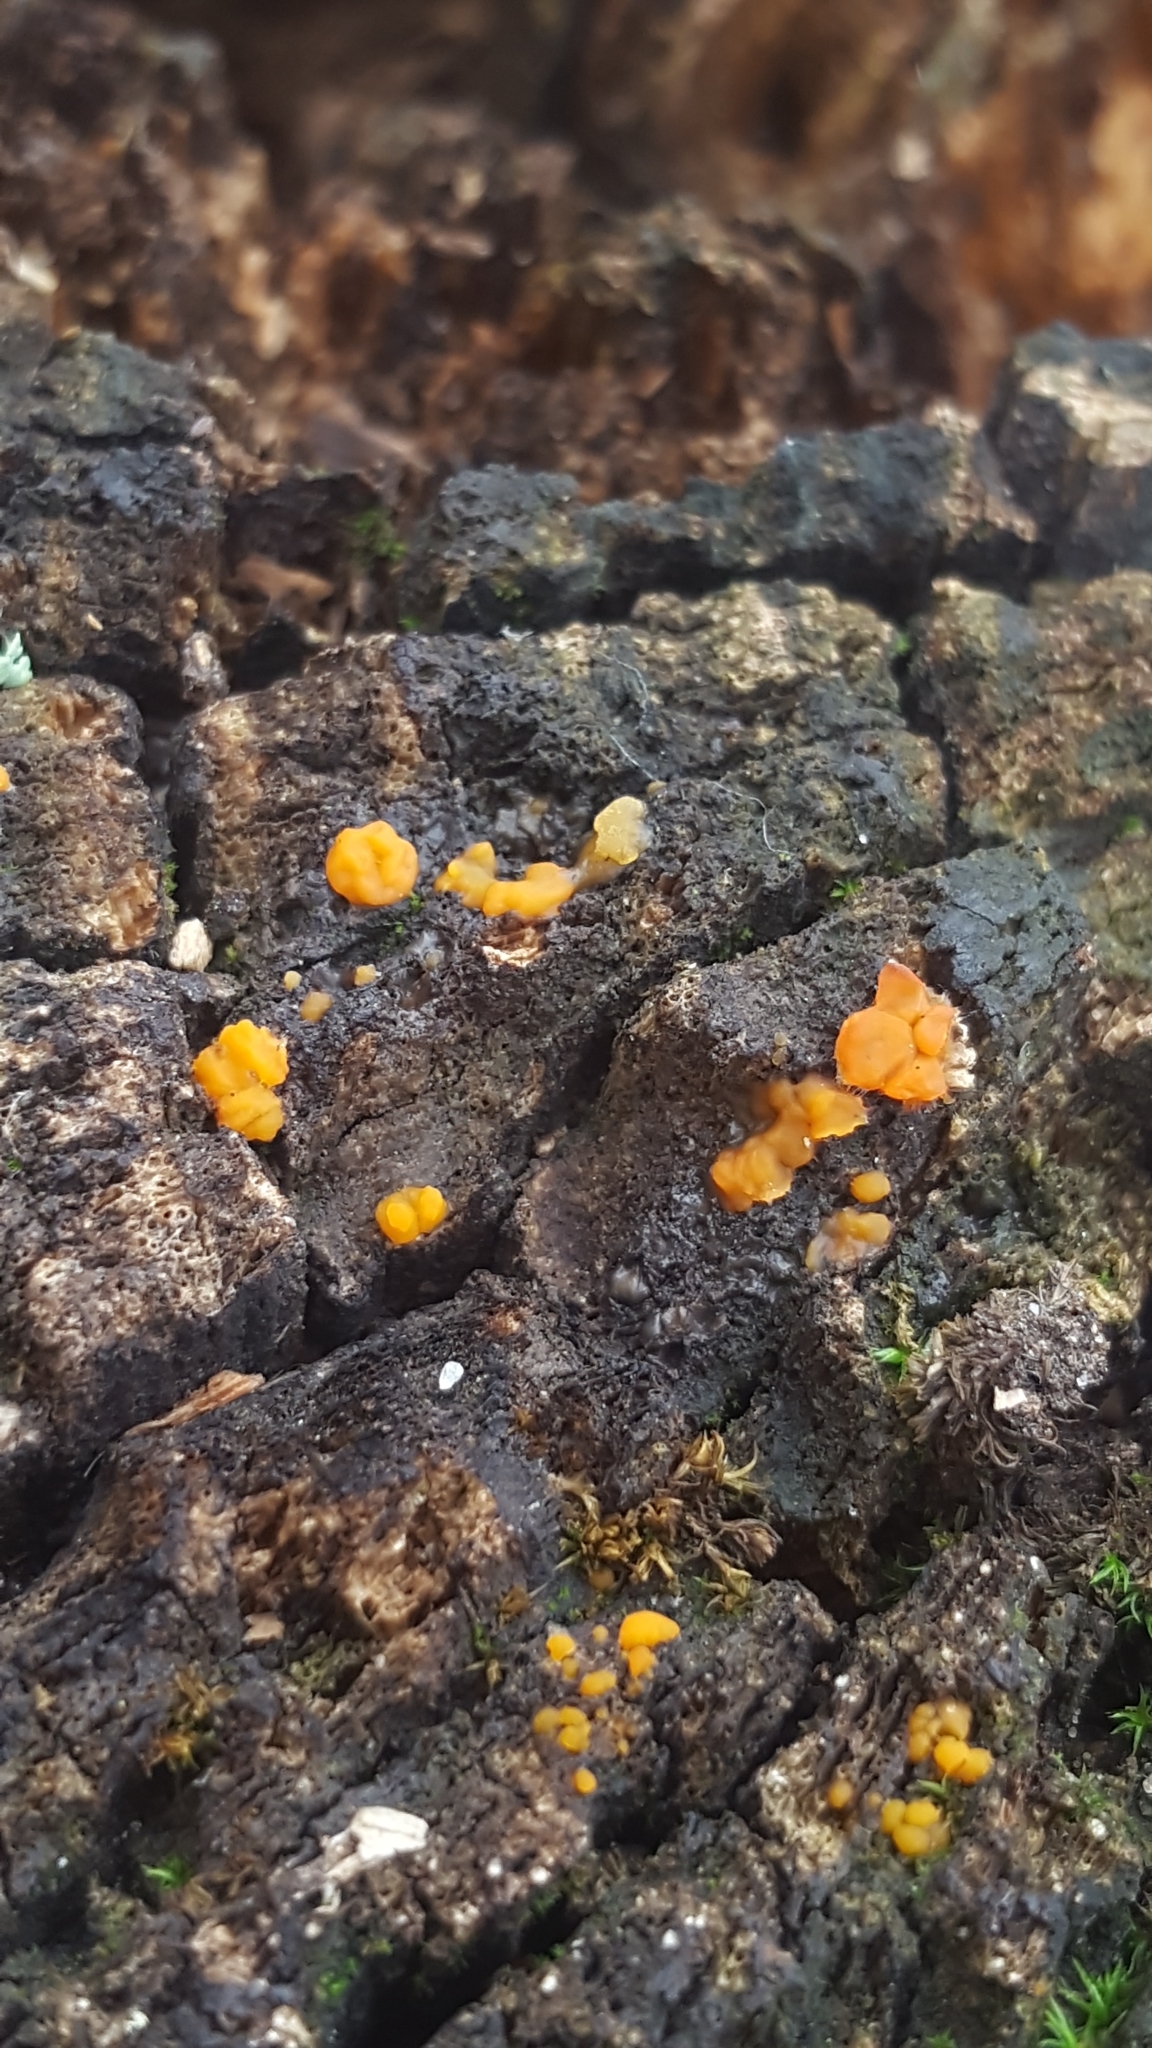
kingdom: Fungi
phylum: Basidiomycota
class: Dacrymycetes
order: Dacrymycetales
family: Dacrymycetaceae
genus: Dacrymyces
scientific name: Dacrymyces stillatus
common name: Common jelly spot
